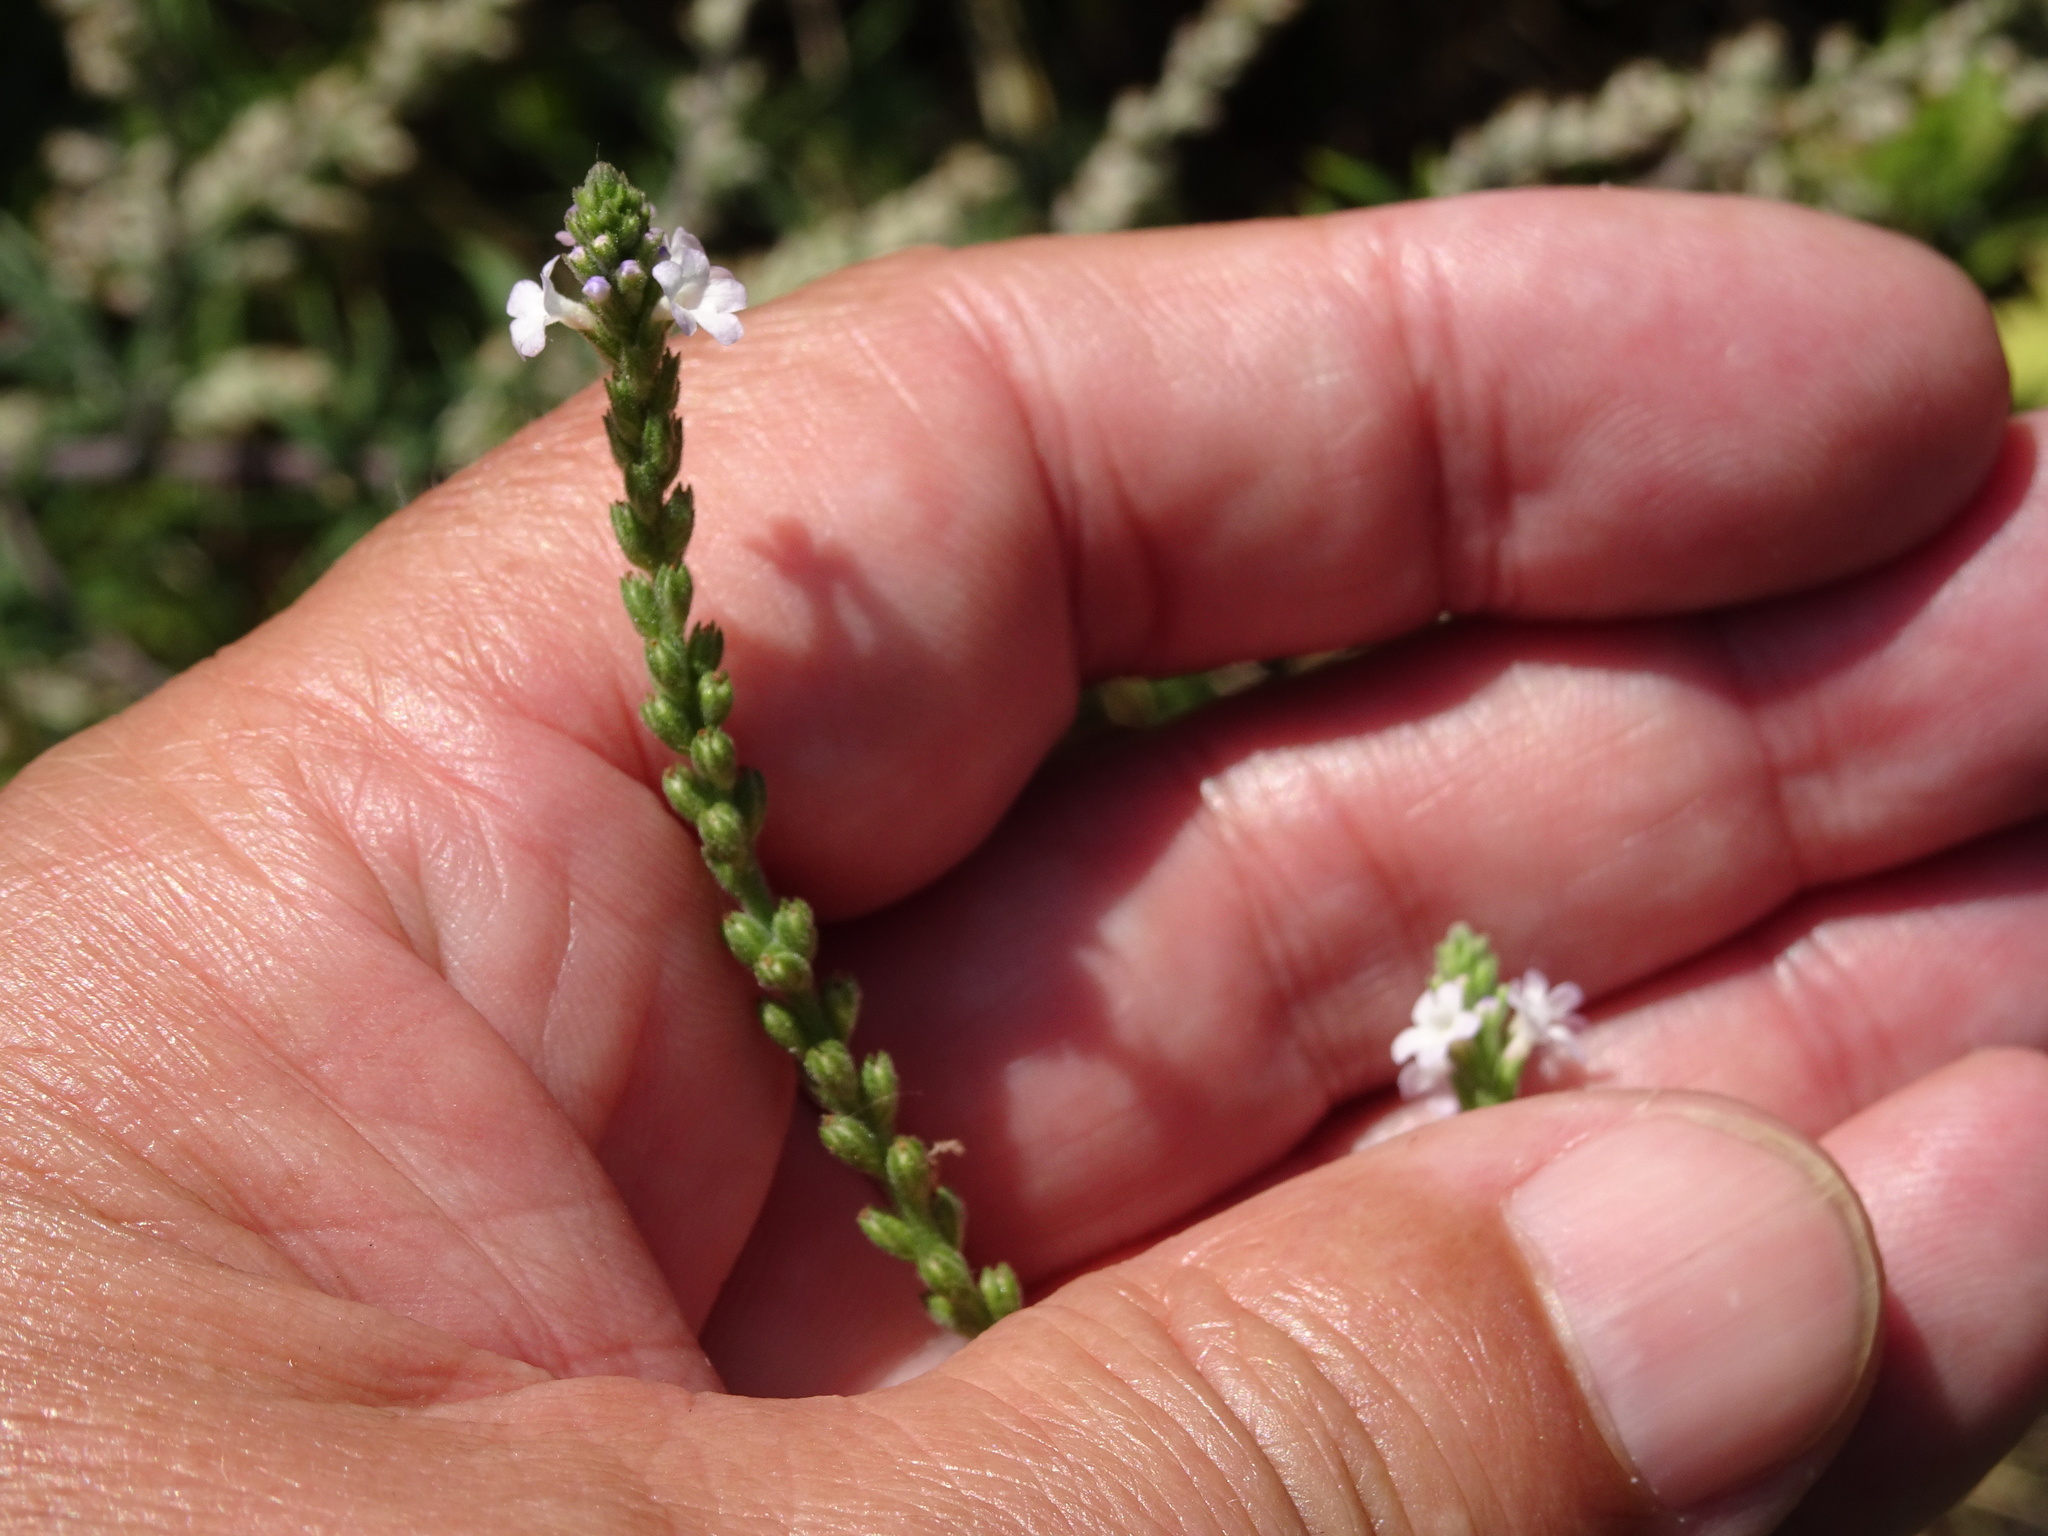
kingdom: Plantae
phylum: Tracheophyta
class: Magnoliopsida
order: Lamiales
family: Verbenaceae
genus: Verbena
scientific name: Verbena officinalis
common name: Vervain
